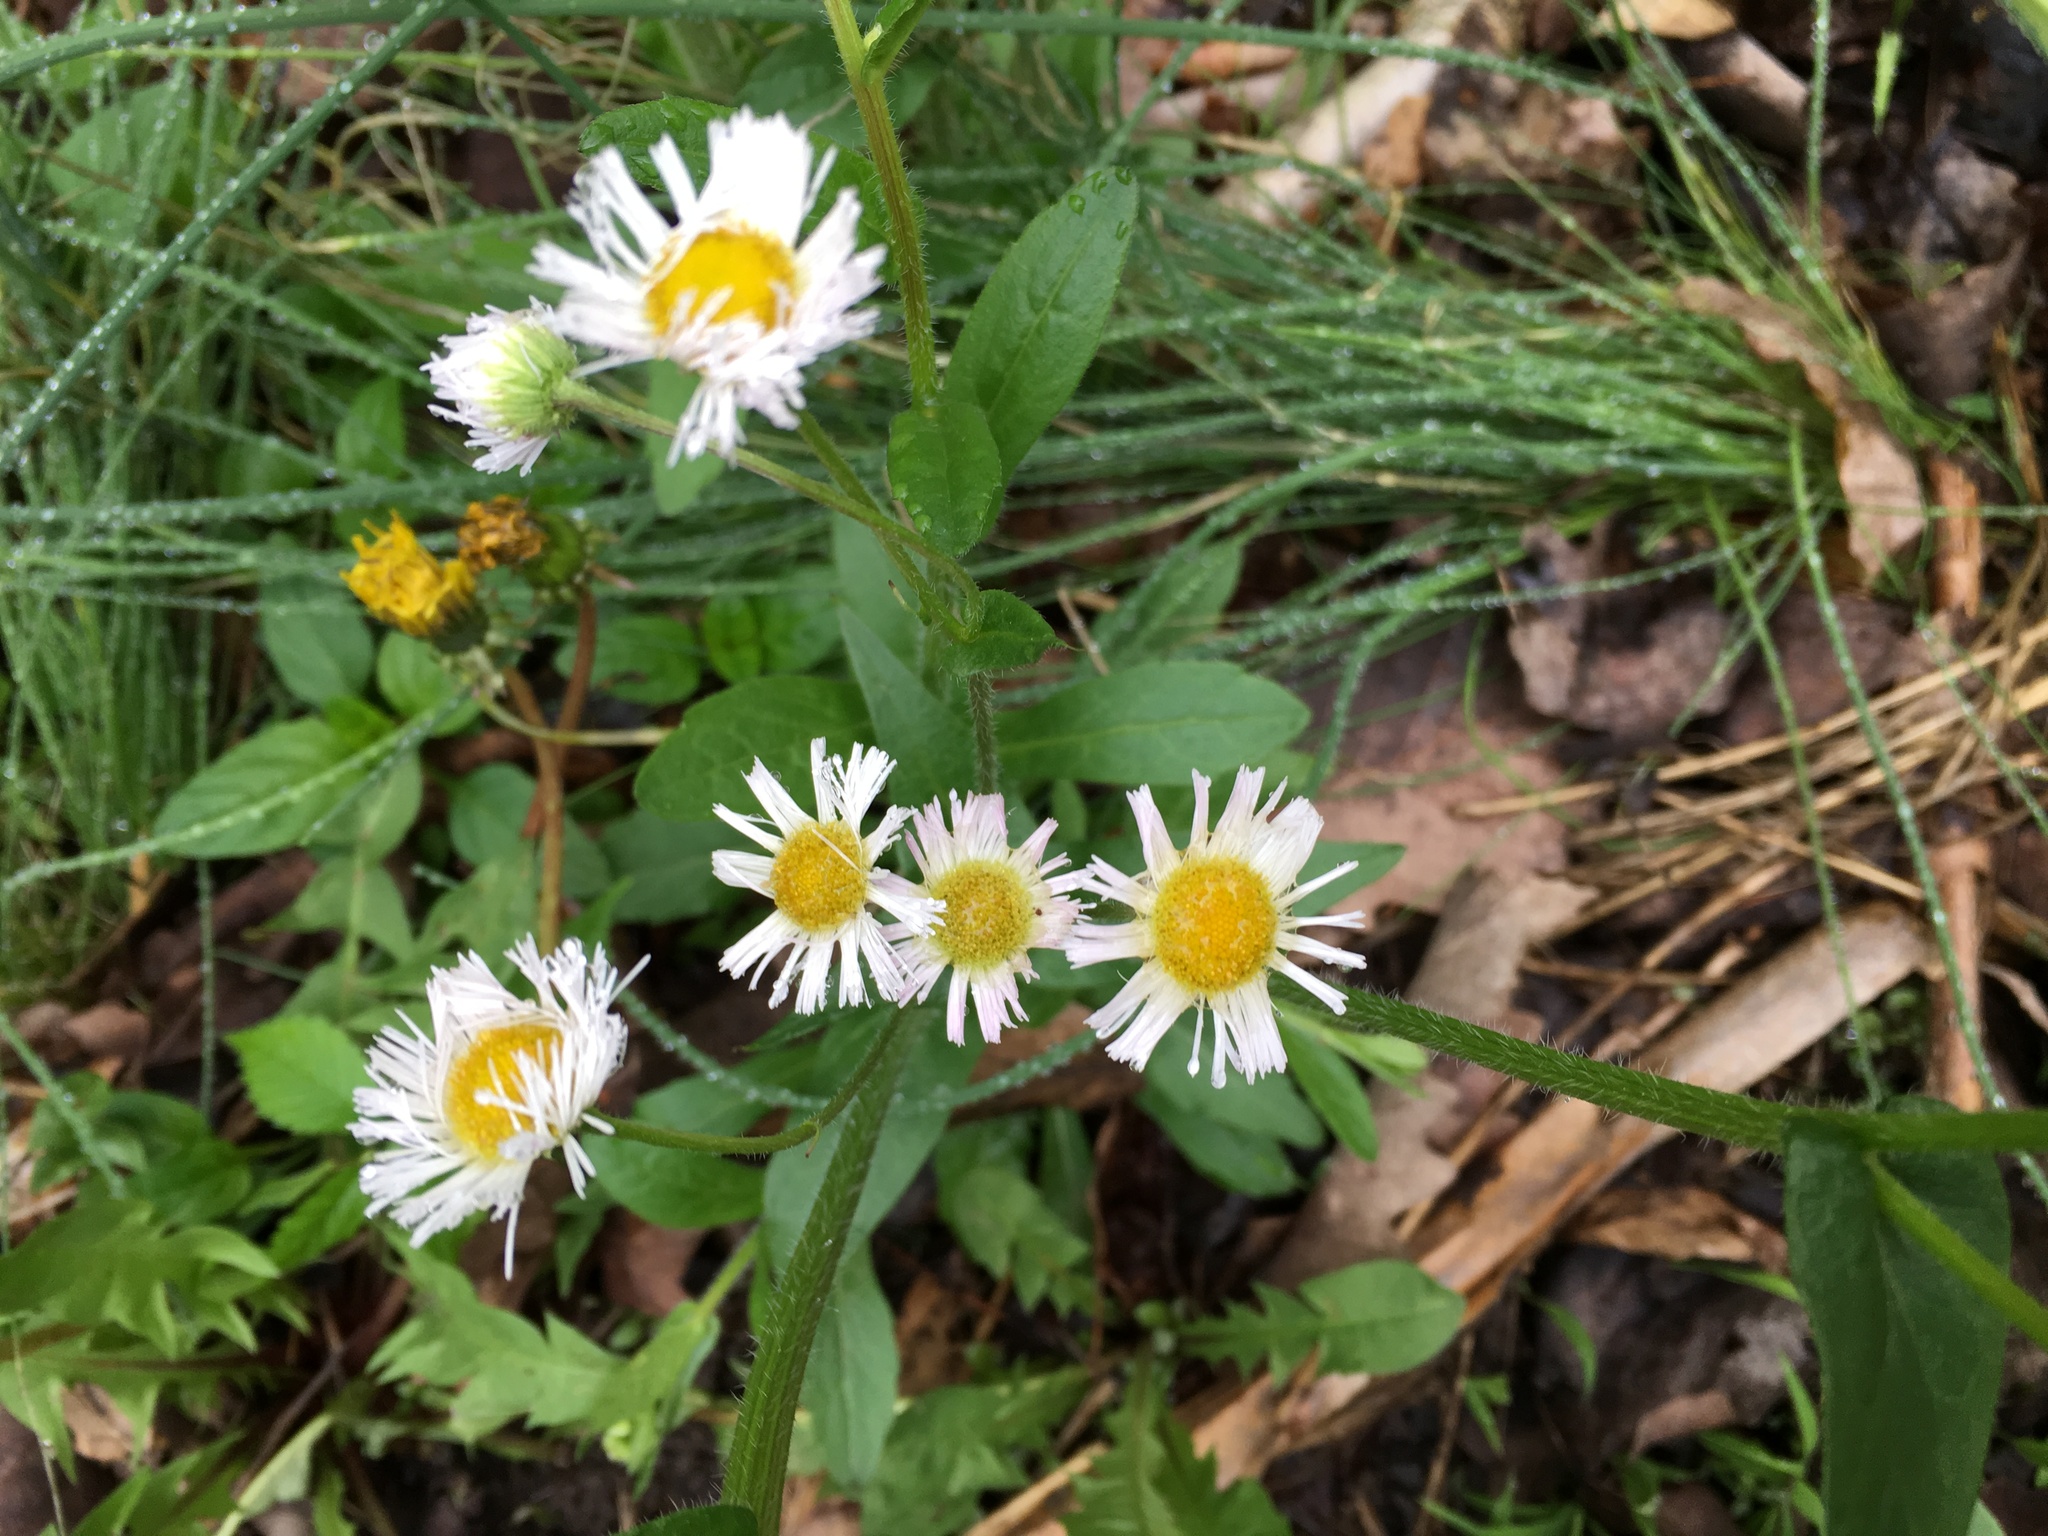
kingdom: Plantae
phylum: Tracheophyta
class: Magnoliopsida
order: Asterales
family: Asteraceae
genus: Erigeron
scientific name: Erigeron philadelphicus
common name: Robin's-plantain
